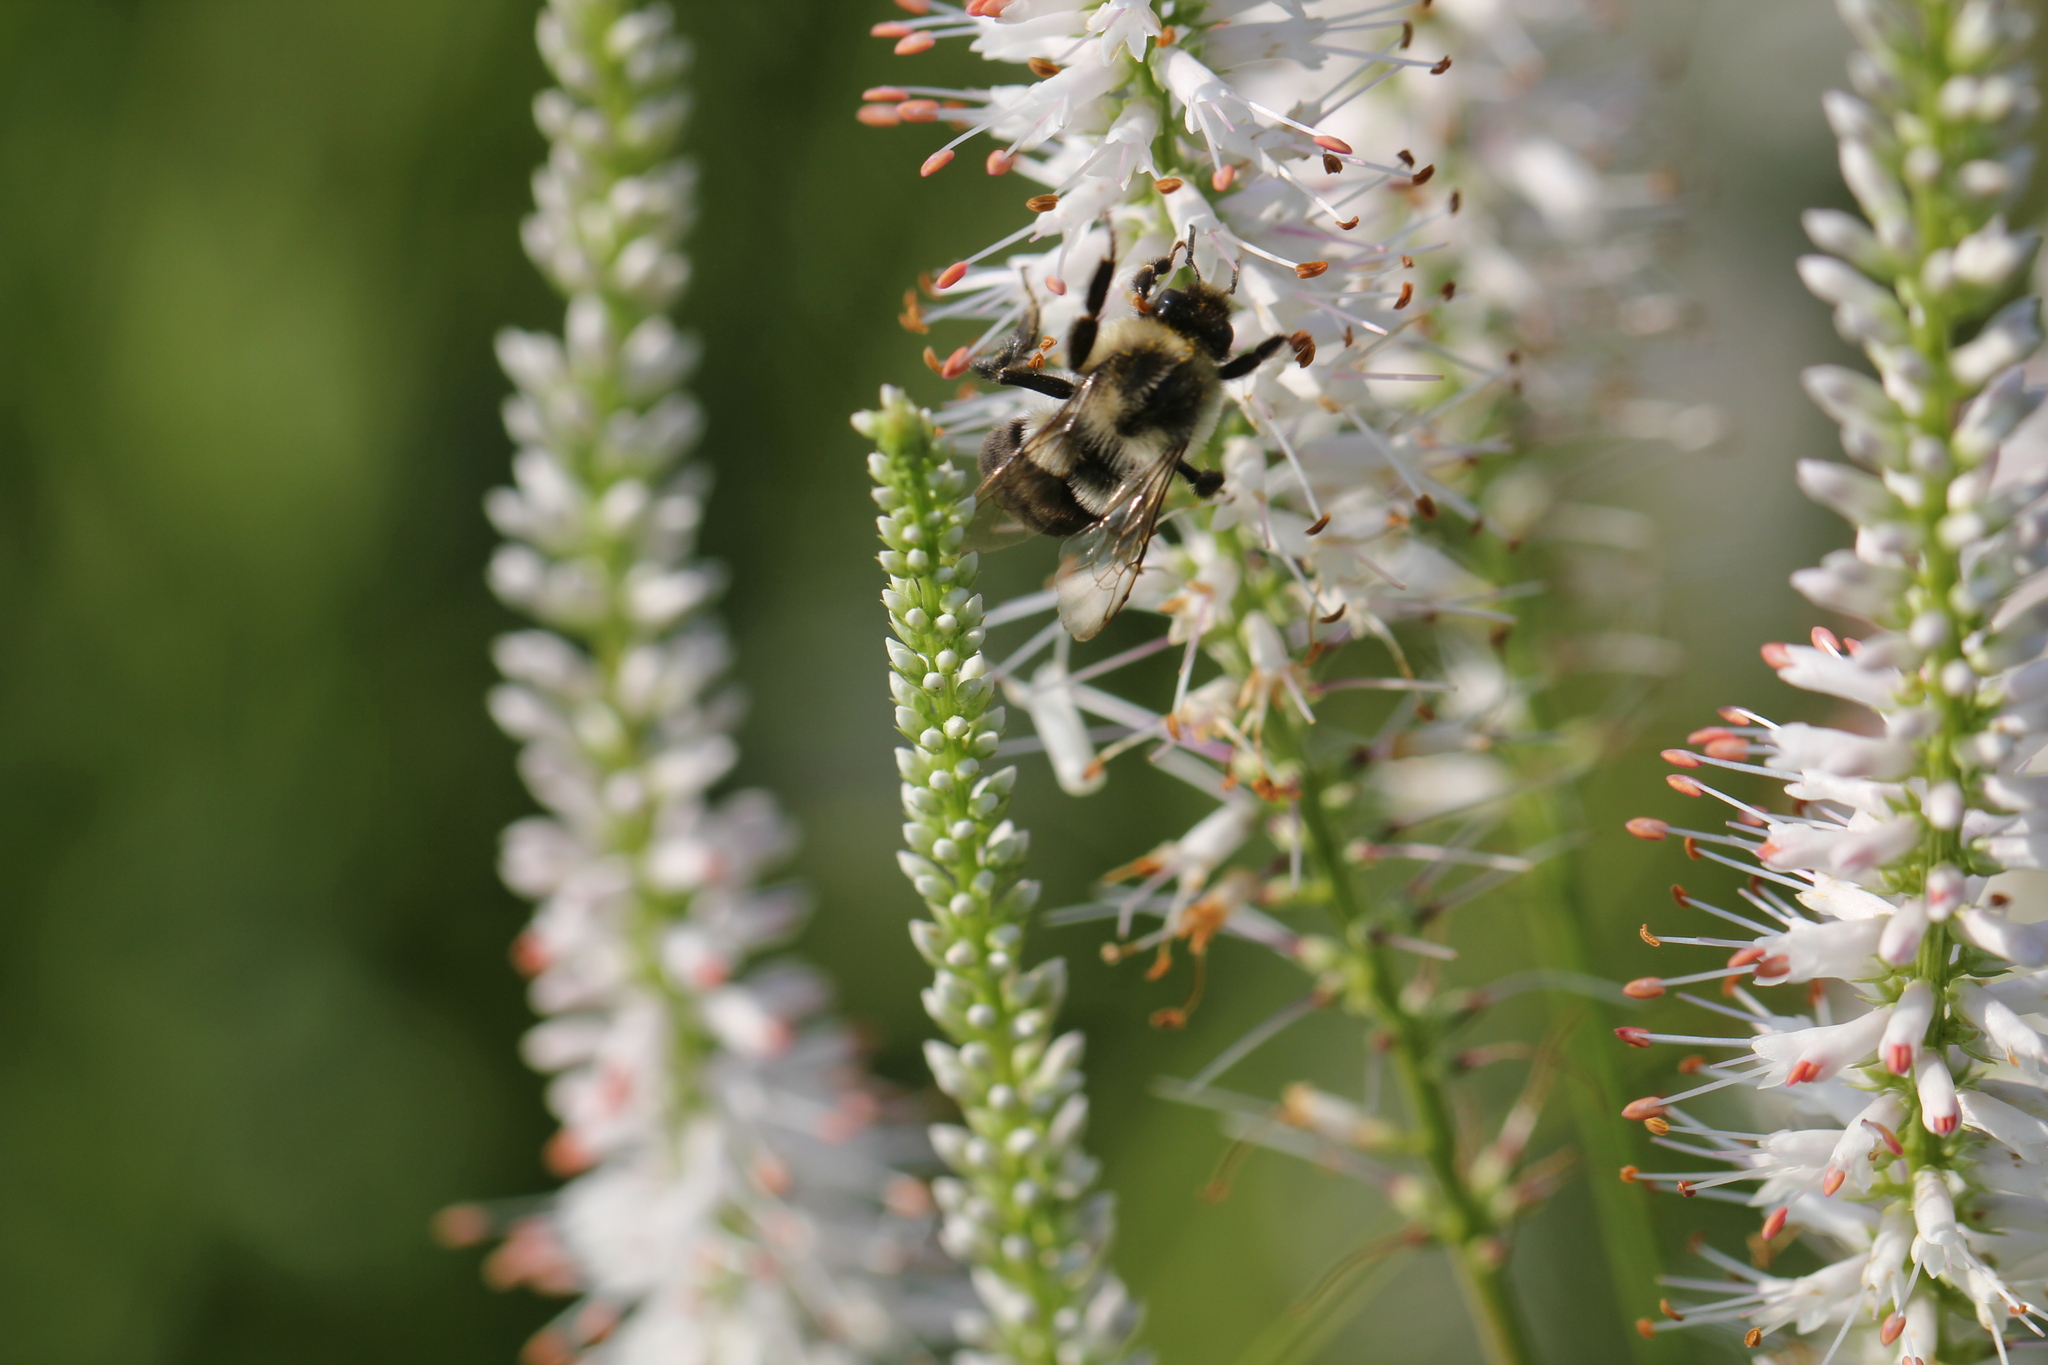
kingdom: Animalia
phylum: Arthropoda
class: Insecta
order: Hymenoptera
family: Apidae
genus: Bombus
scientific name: Bombus impatiens
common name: Common eastern bumble bee
